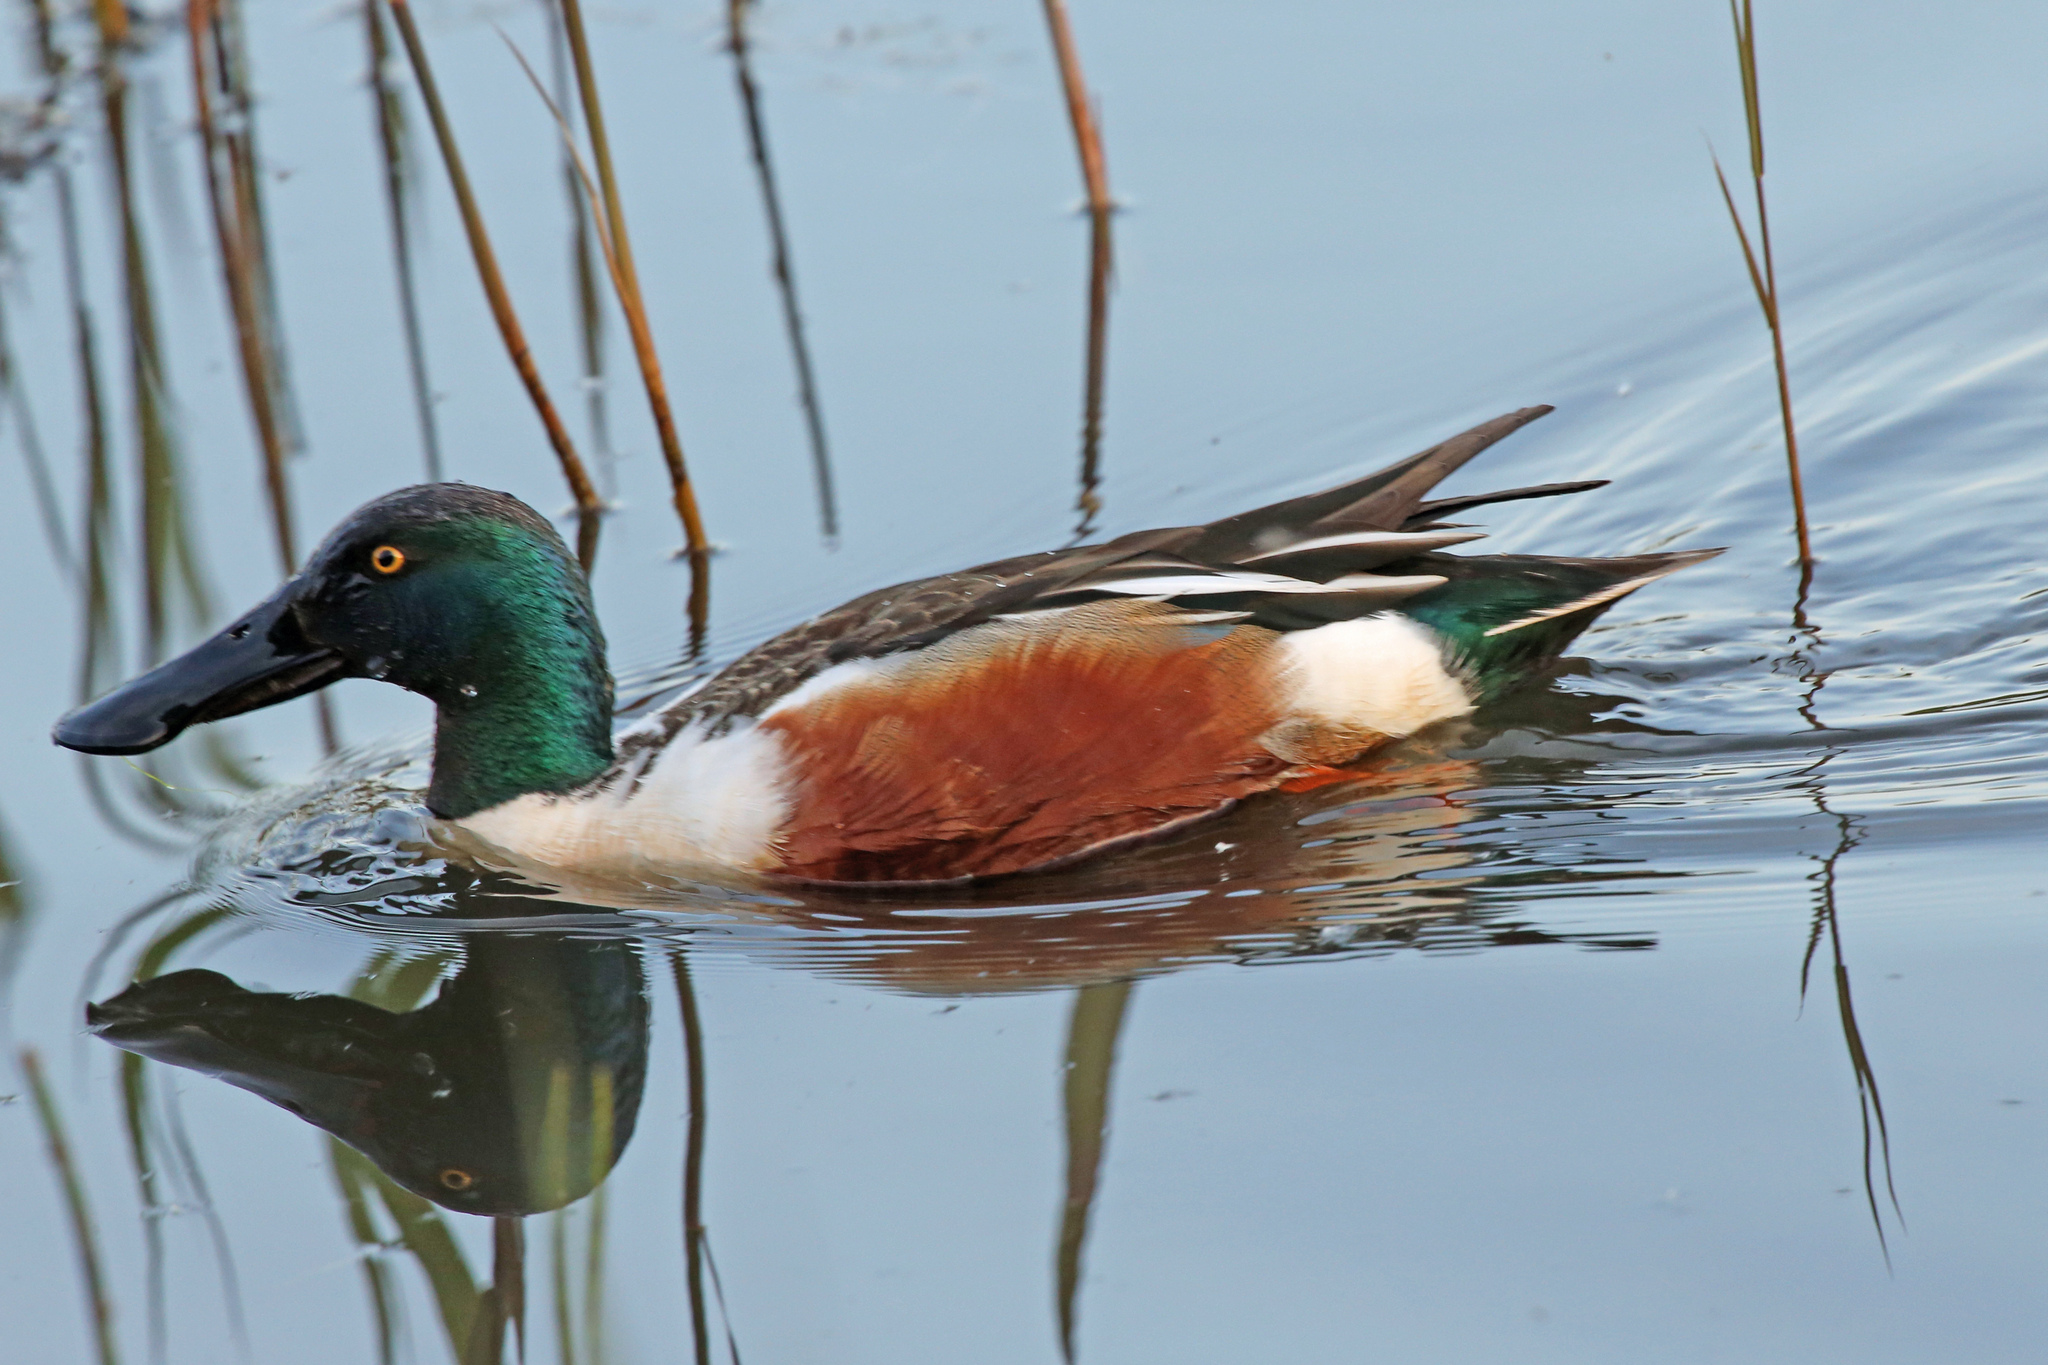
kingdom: Animalia
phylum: Chordata
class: Aves
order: Anseriformes
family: Anatidae
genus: Spatula
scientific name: Spatula clypeata
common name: Northern shoveler
